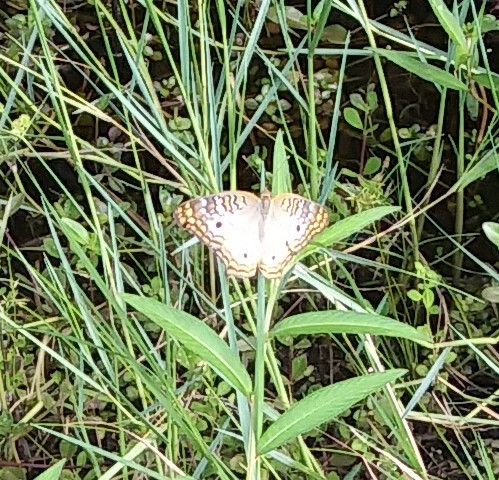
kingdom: Animalia
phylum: Arthropoda
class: Insecta
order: Lepidoptera
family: Nymphalidae
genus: Anartia
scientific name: Anartia jatrophae
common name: White peacock
